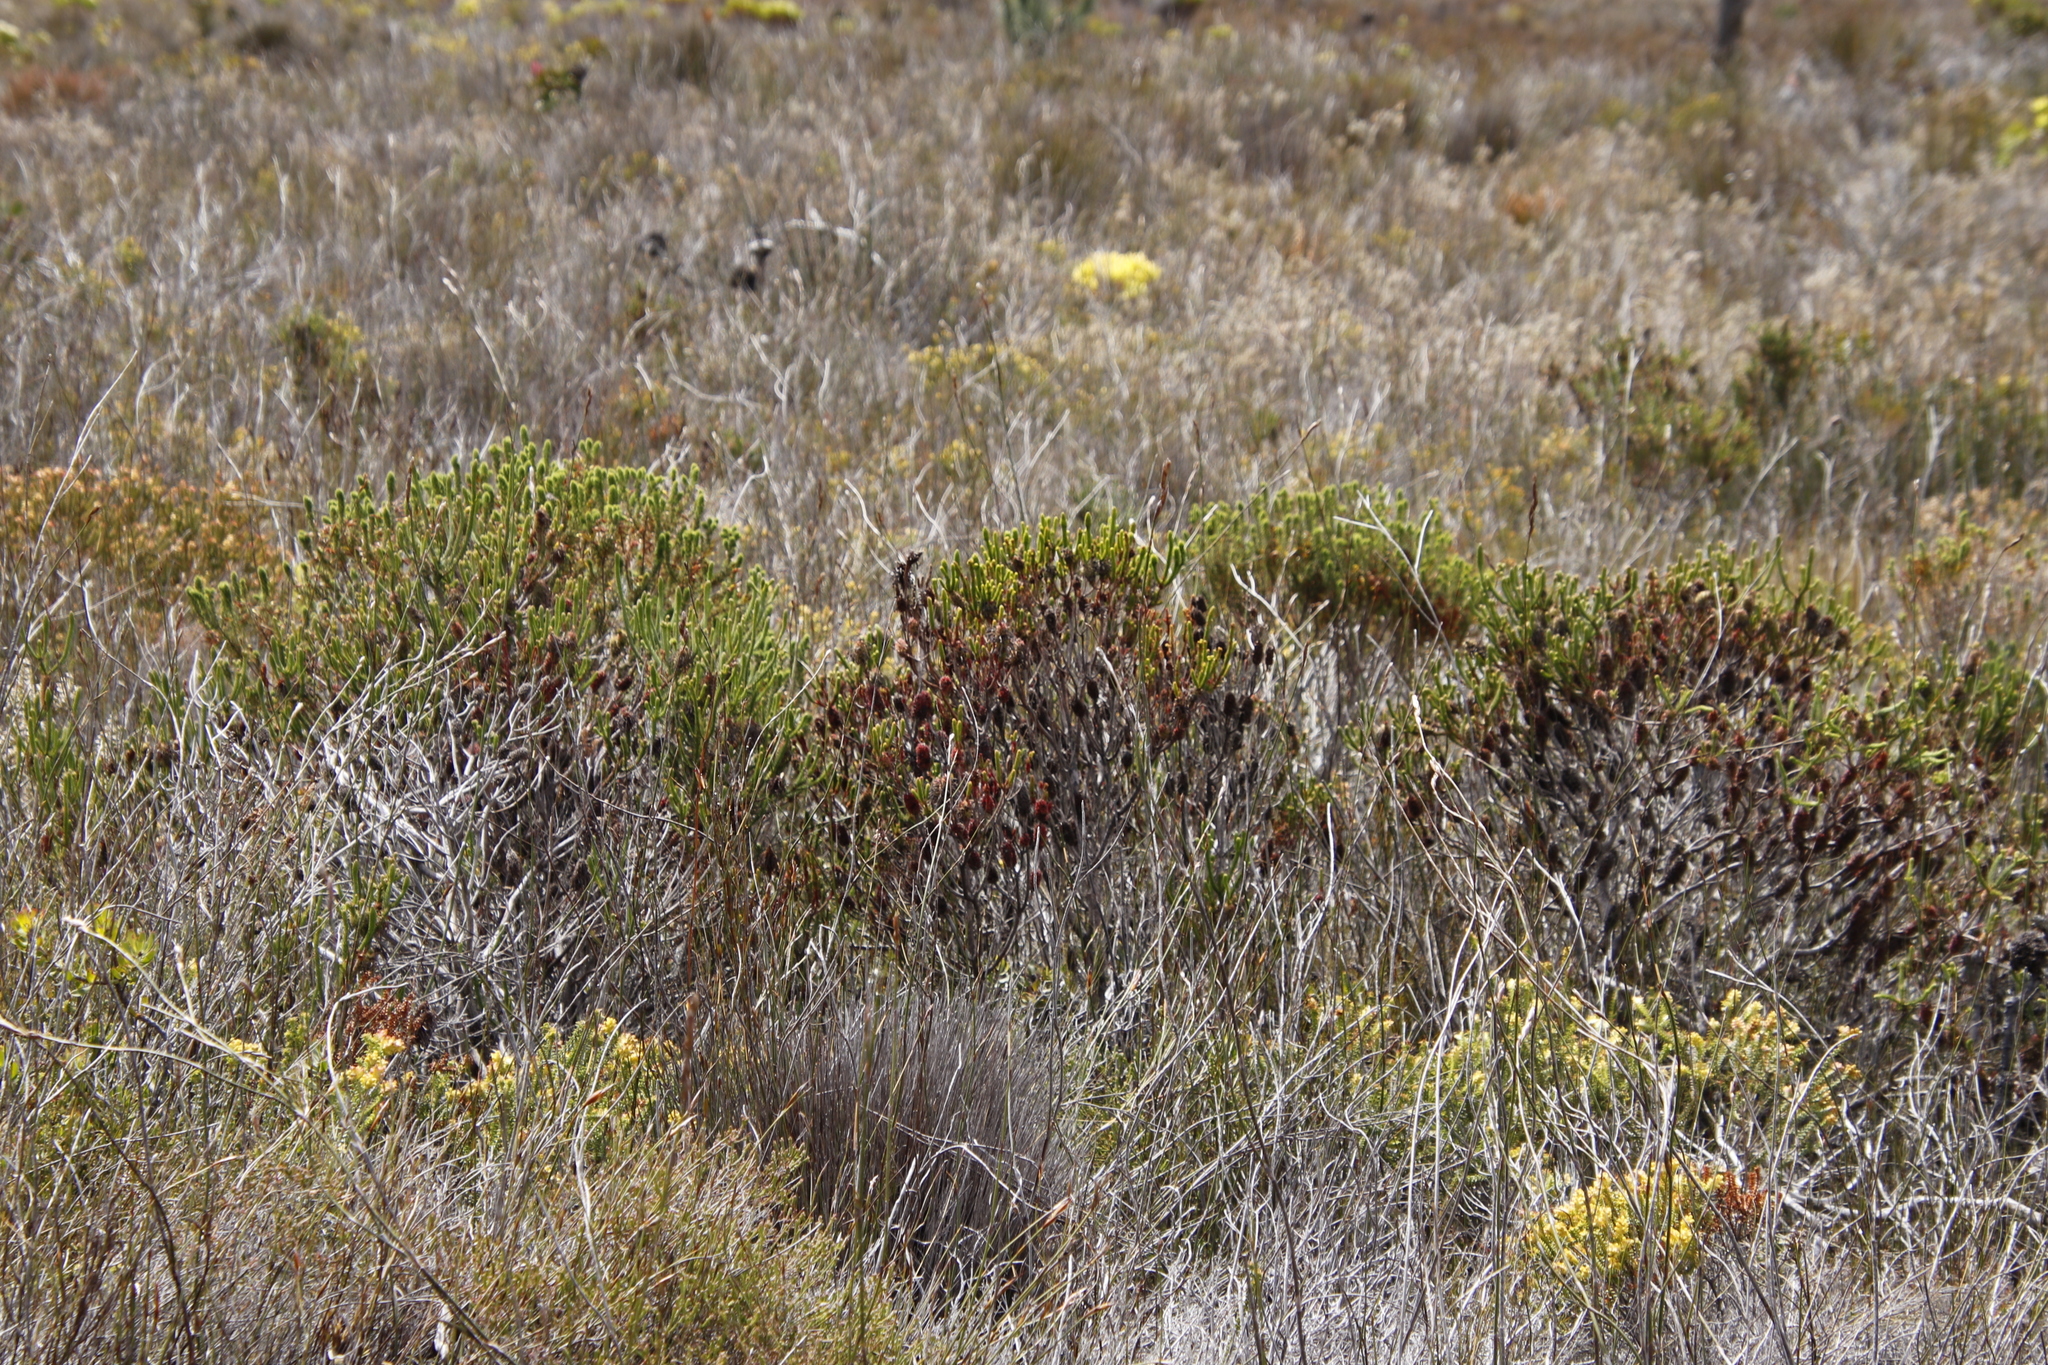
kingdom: Plantae
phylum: Tracheophyta
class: Magnoliopsida
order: Ericales
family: Ericaceae
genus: Erica
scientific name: Erica sessiliflora
